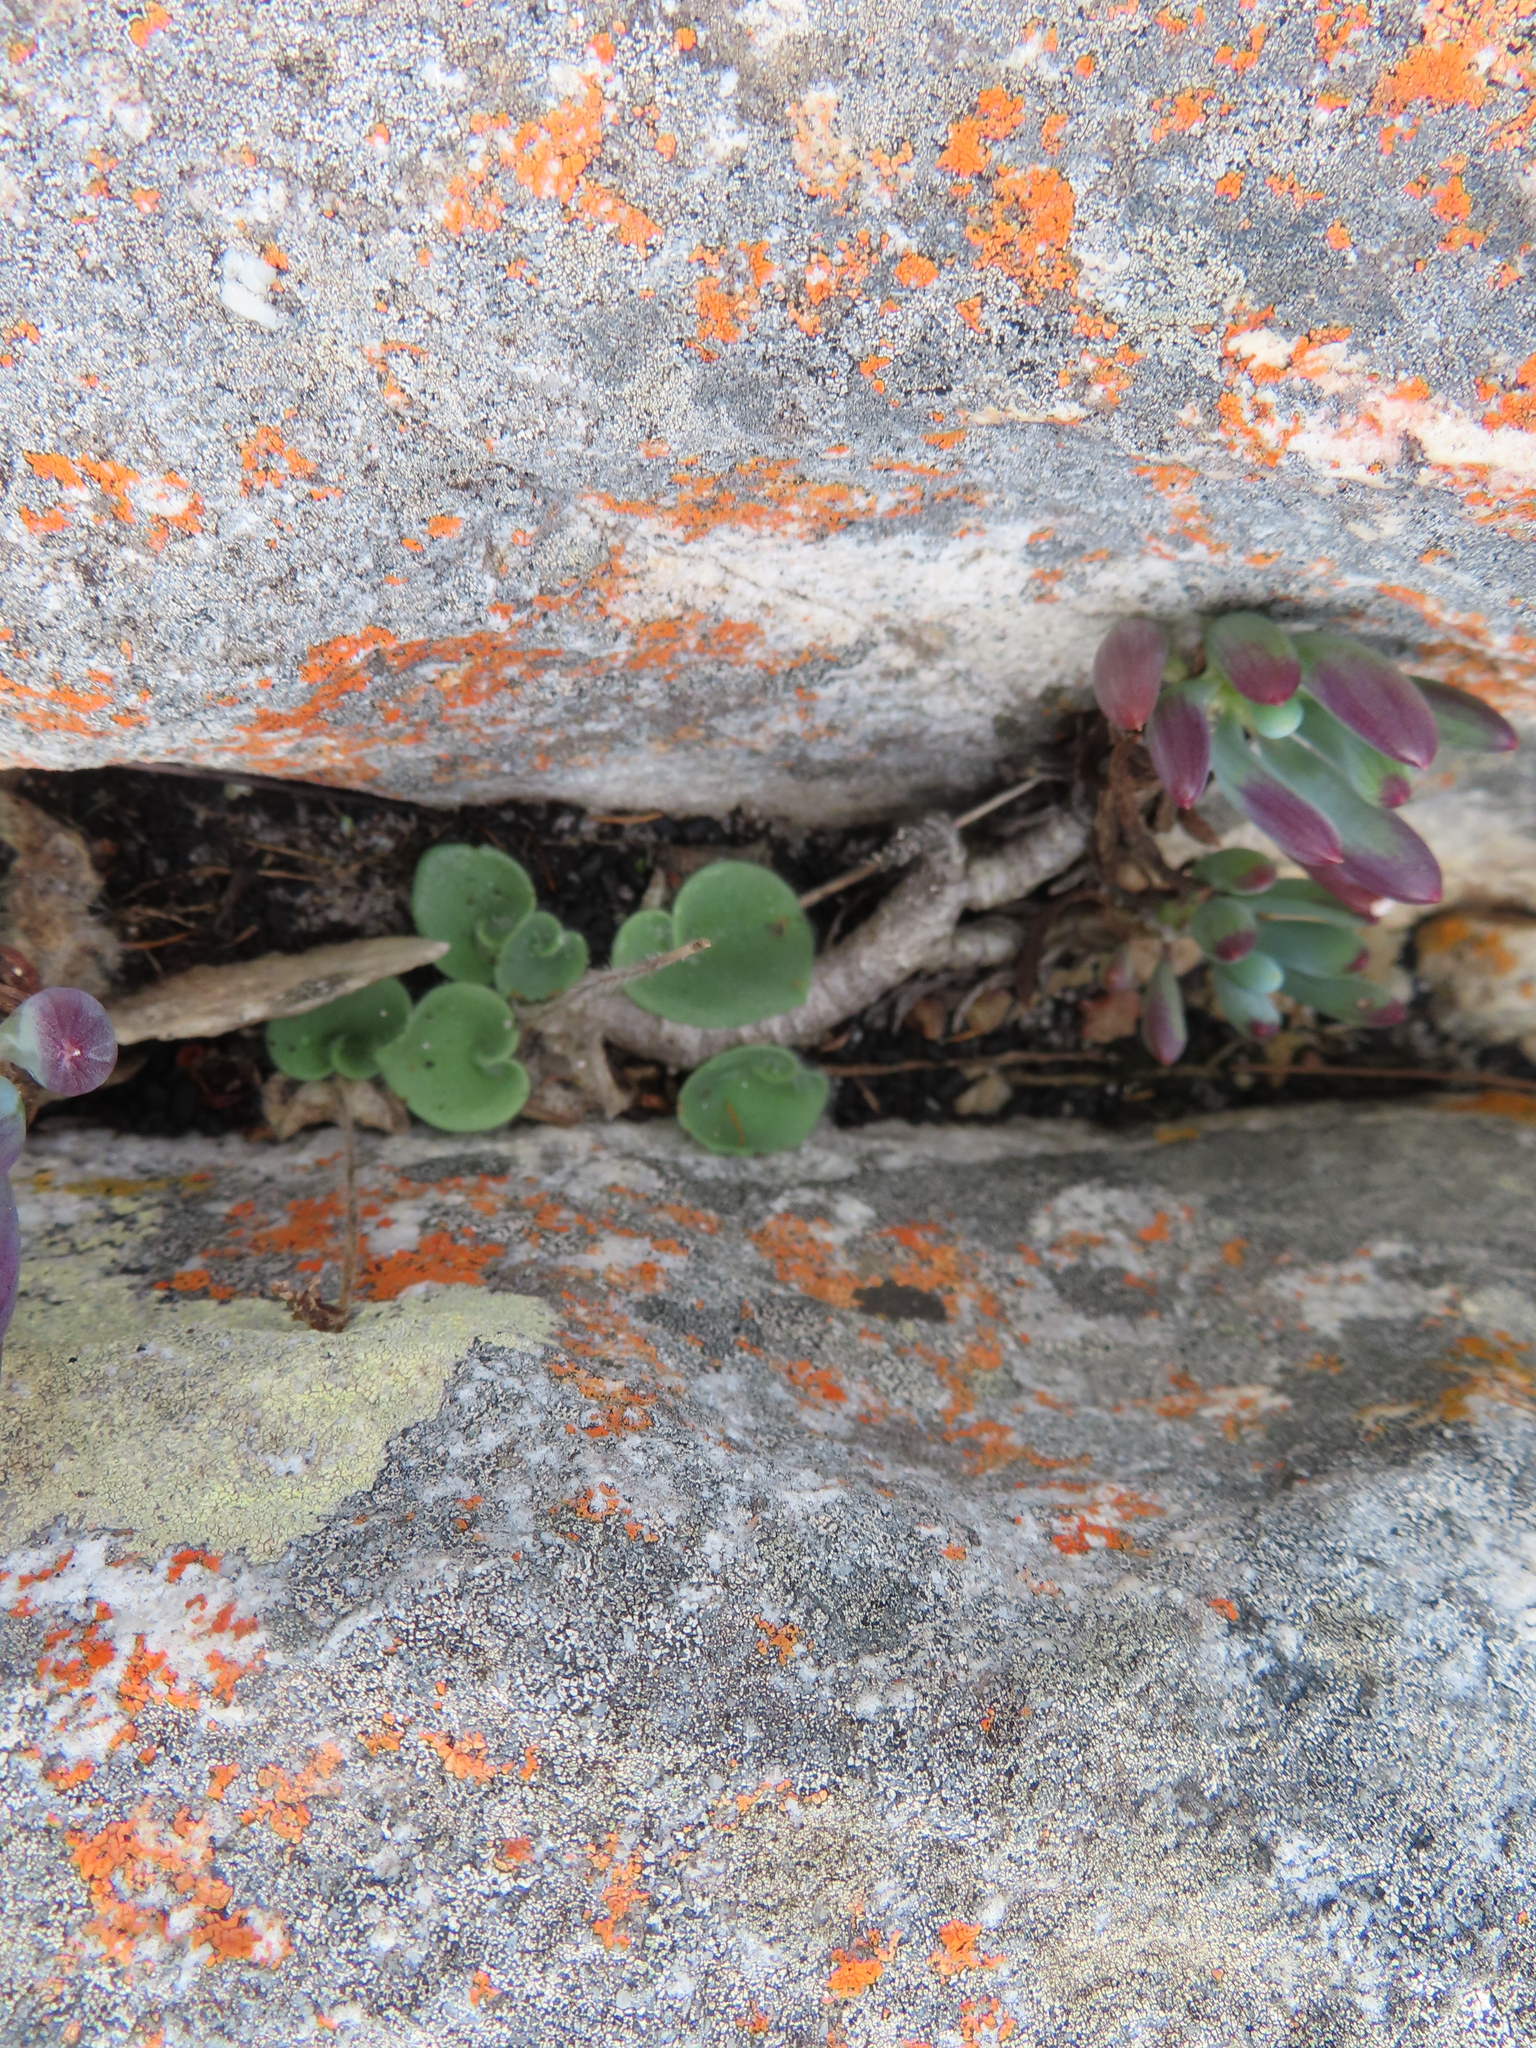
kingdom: Plantae
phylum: Tracheophyta
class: Liliopsida
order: Asparagales
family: Orchidaceae
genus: Holothrix
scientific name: Holothrix villosa
